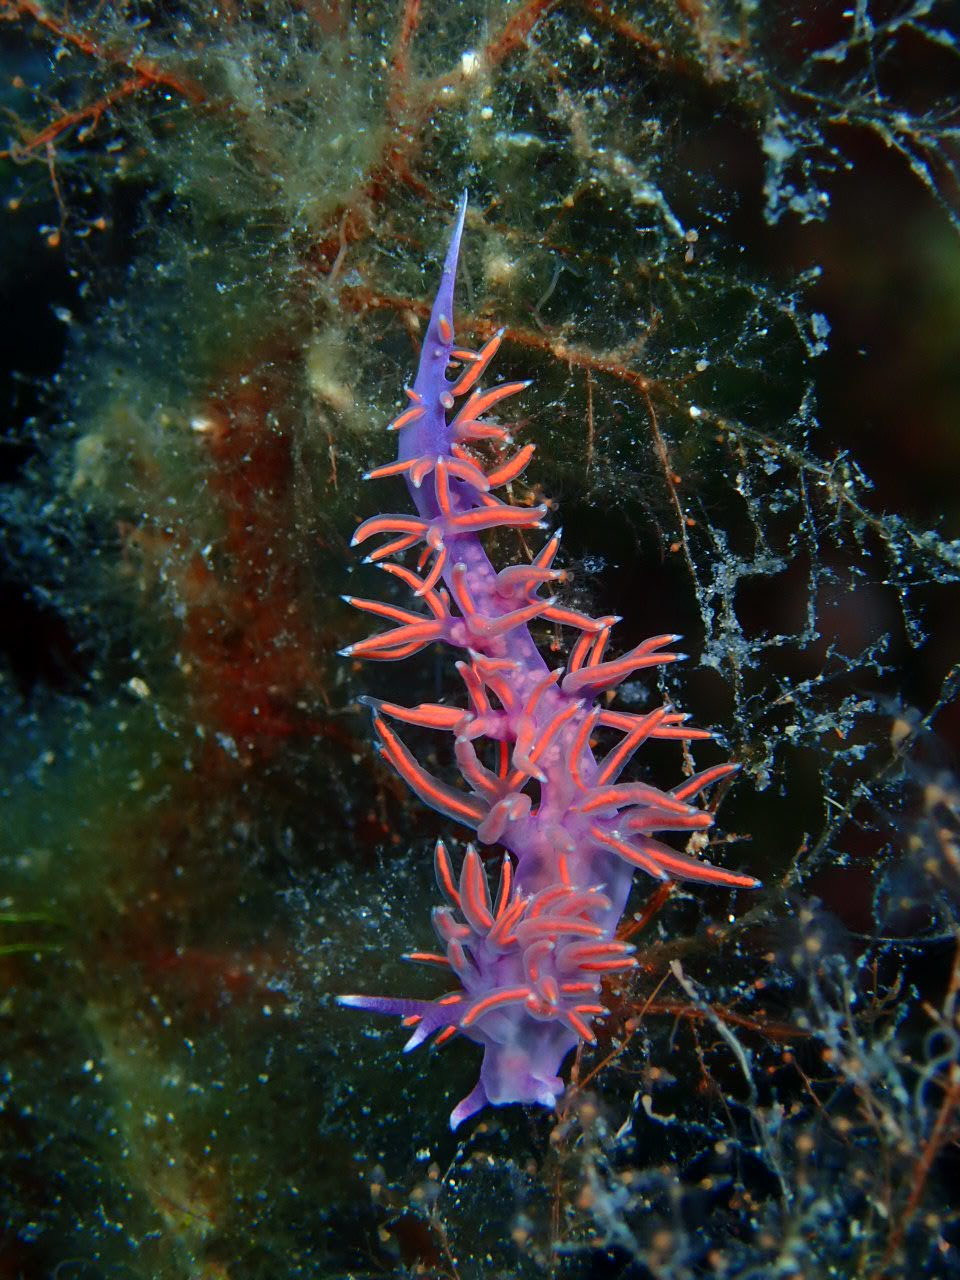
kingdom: Animalia
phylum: Mollusca
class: Gastropoda
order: Nudibranchia
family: Flabellinidae
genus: Paraflabellina
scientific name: Paraflabellina ischitana
